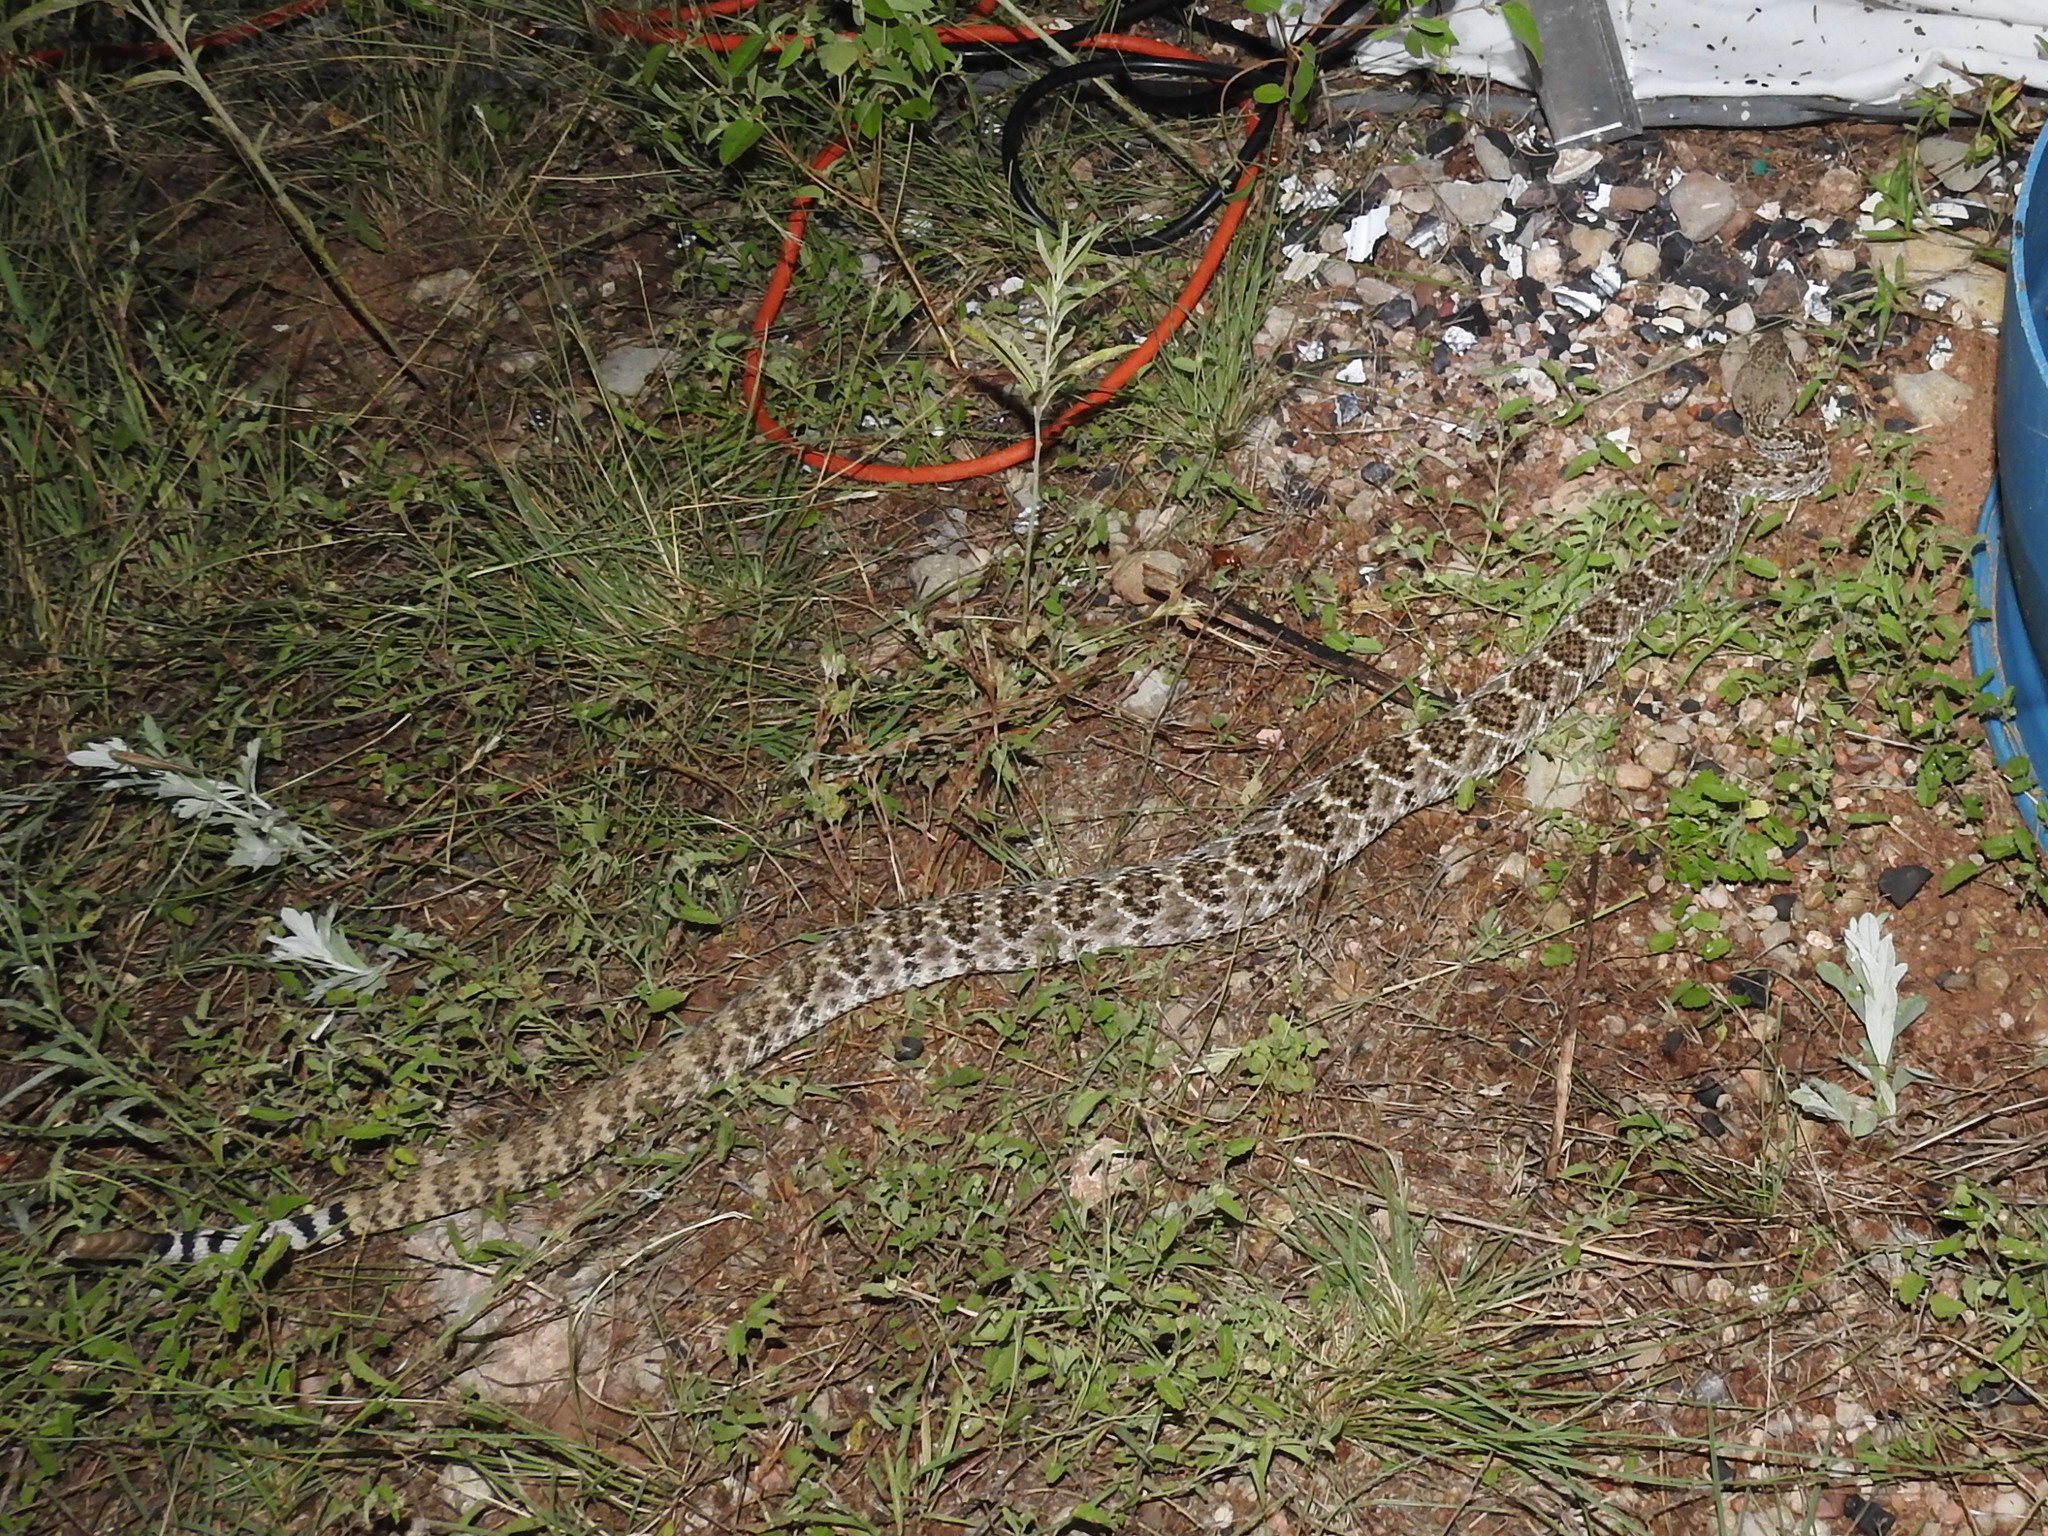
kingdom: Animalia
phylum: Chordata
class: Squamata
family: Viperidae
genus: Crotalus
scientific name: Crotalus atrox
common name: Western diamond-backed rattlesnake
